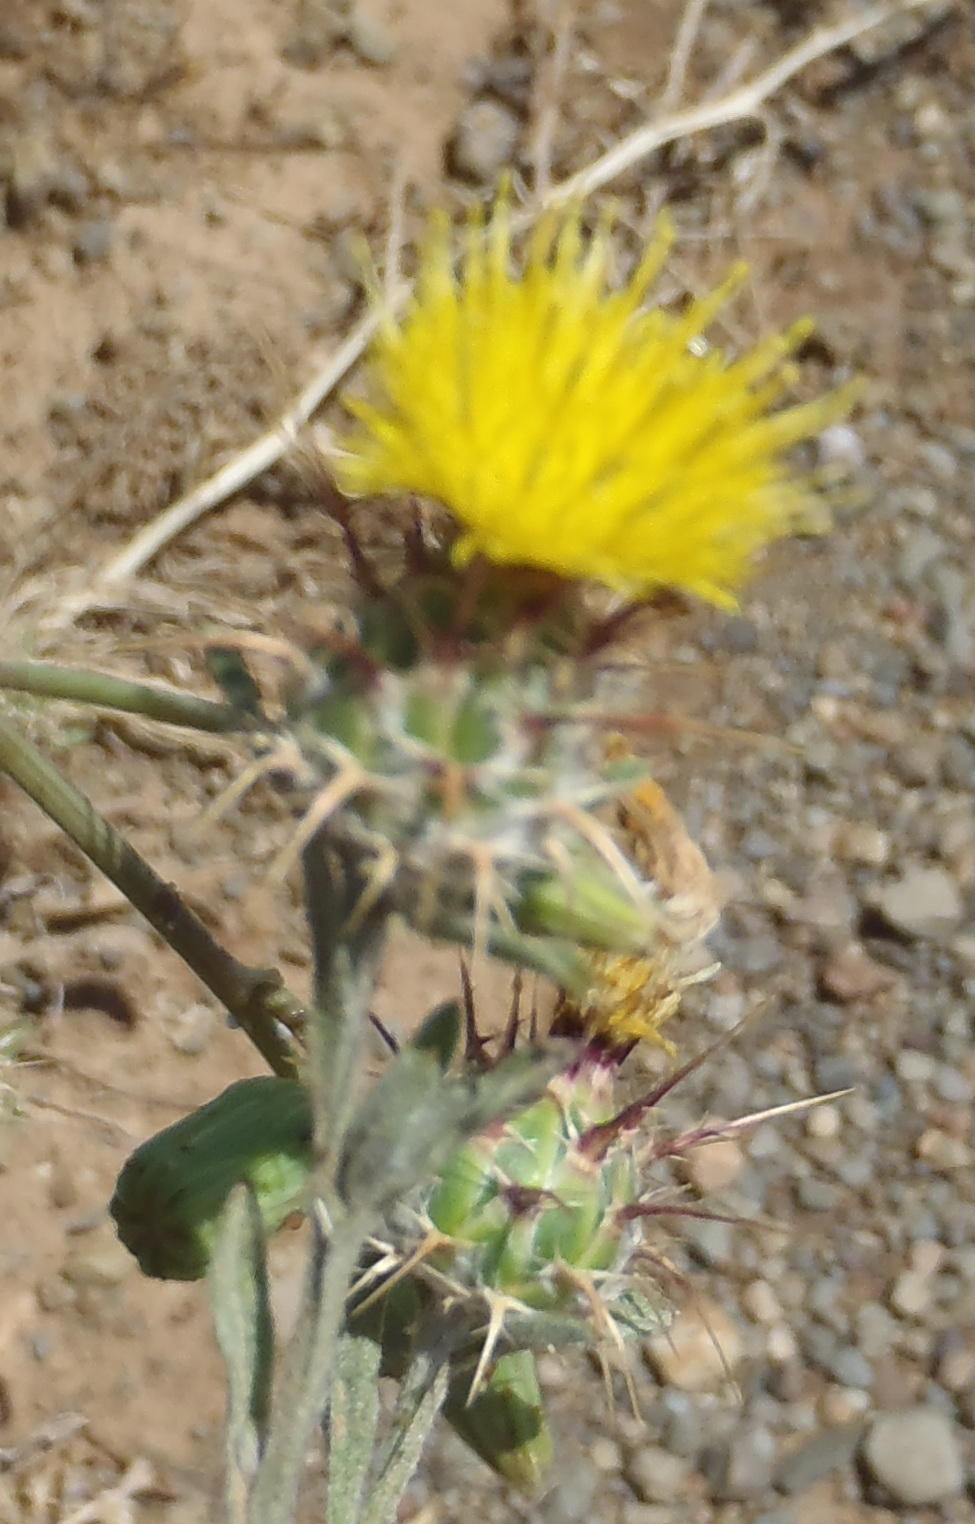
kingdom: Plantae
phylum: Tracheophyta
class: Magnoliopsida
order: Asterales
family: Asteraceae
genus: Centaurea
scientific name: Centaurea melitensis
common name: Maltese star-thistle
